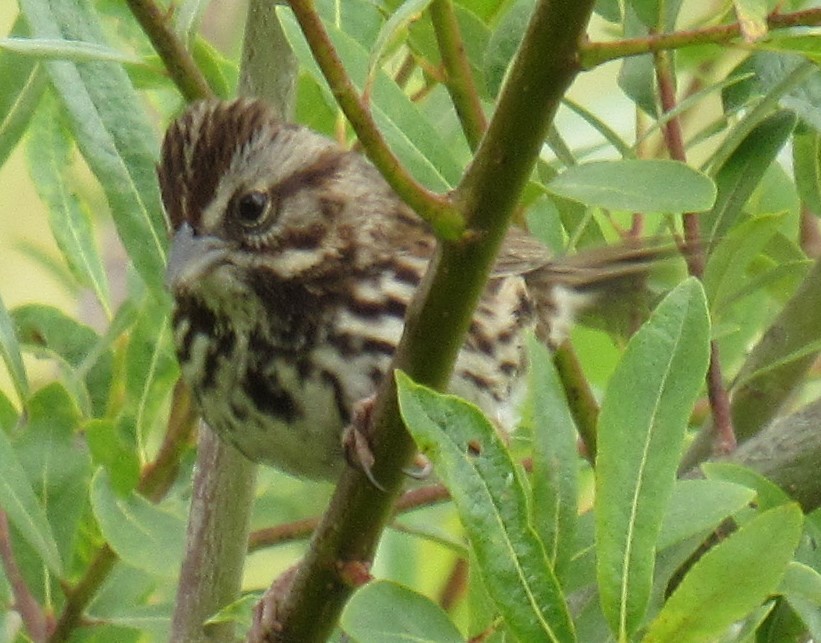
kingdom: Animalia
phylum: Chordata
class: Aves
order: Passeriformes
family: Passerellidae
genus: Melospiza
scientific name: Melospiza melodia
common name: Song sparrow
